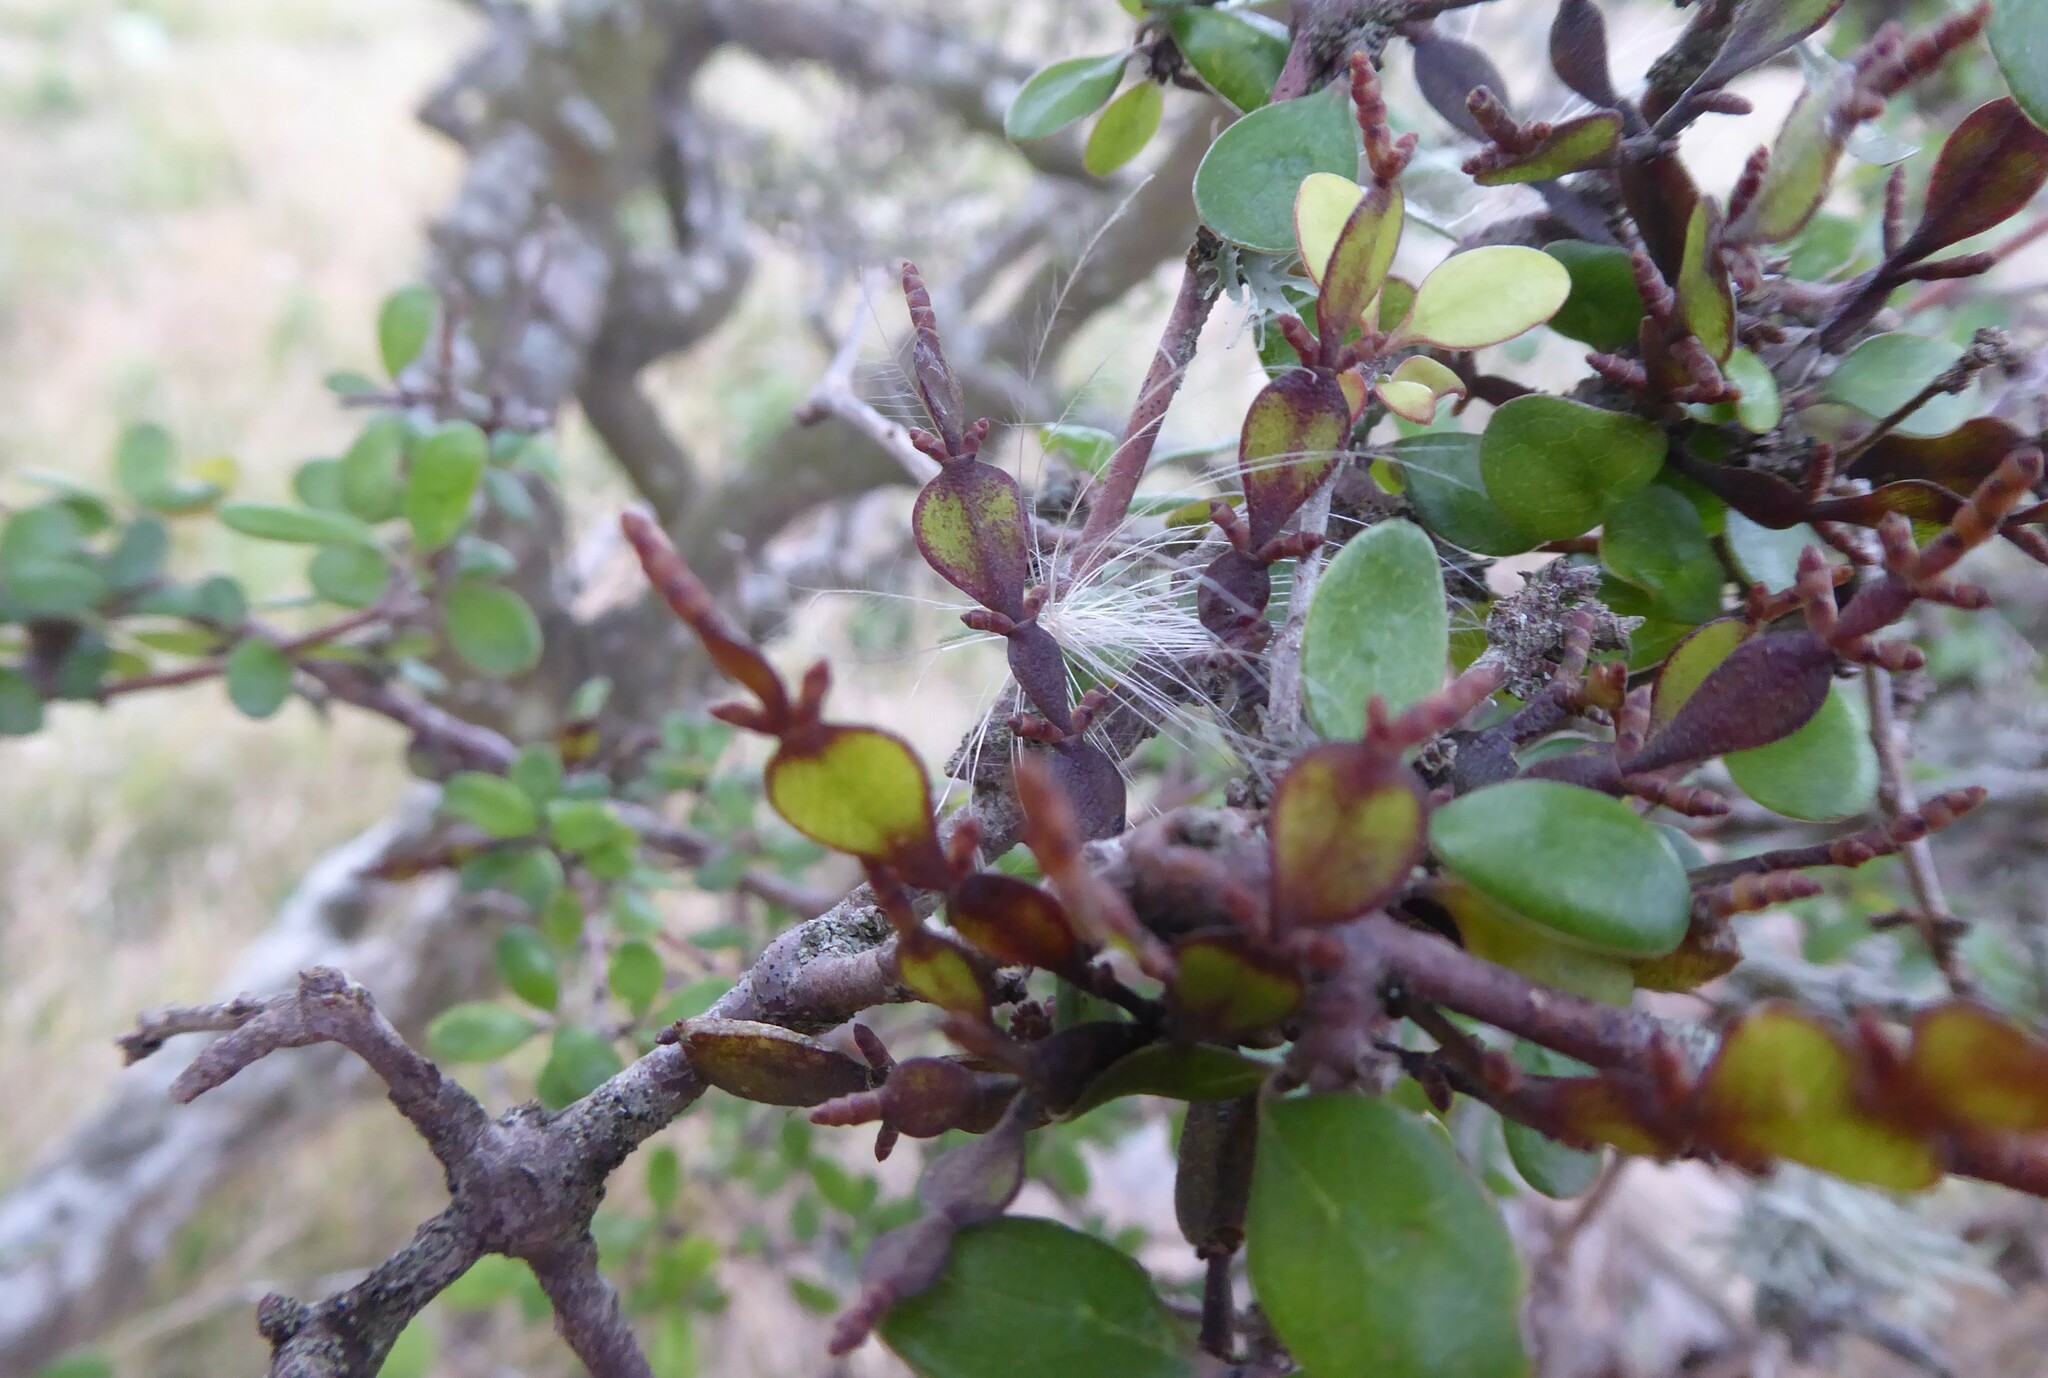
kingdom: Plantae
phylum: Tracheophyta
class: Magnoliopsida
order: Santalales
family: Viscaceae
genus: Korthalsella
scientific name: Korthalsella lindsayi
